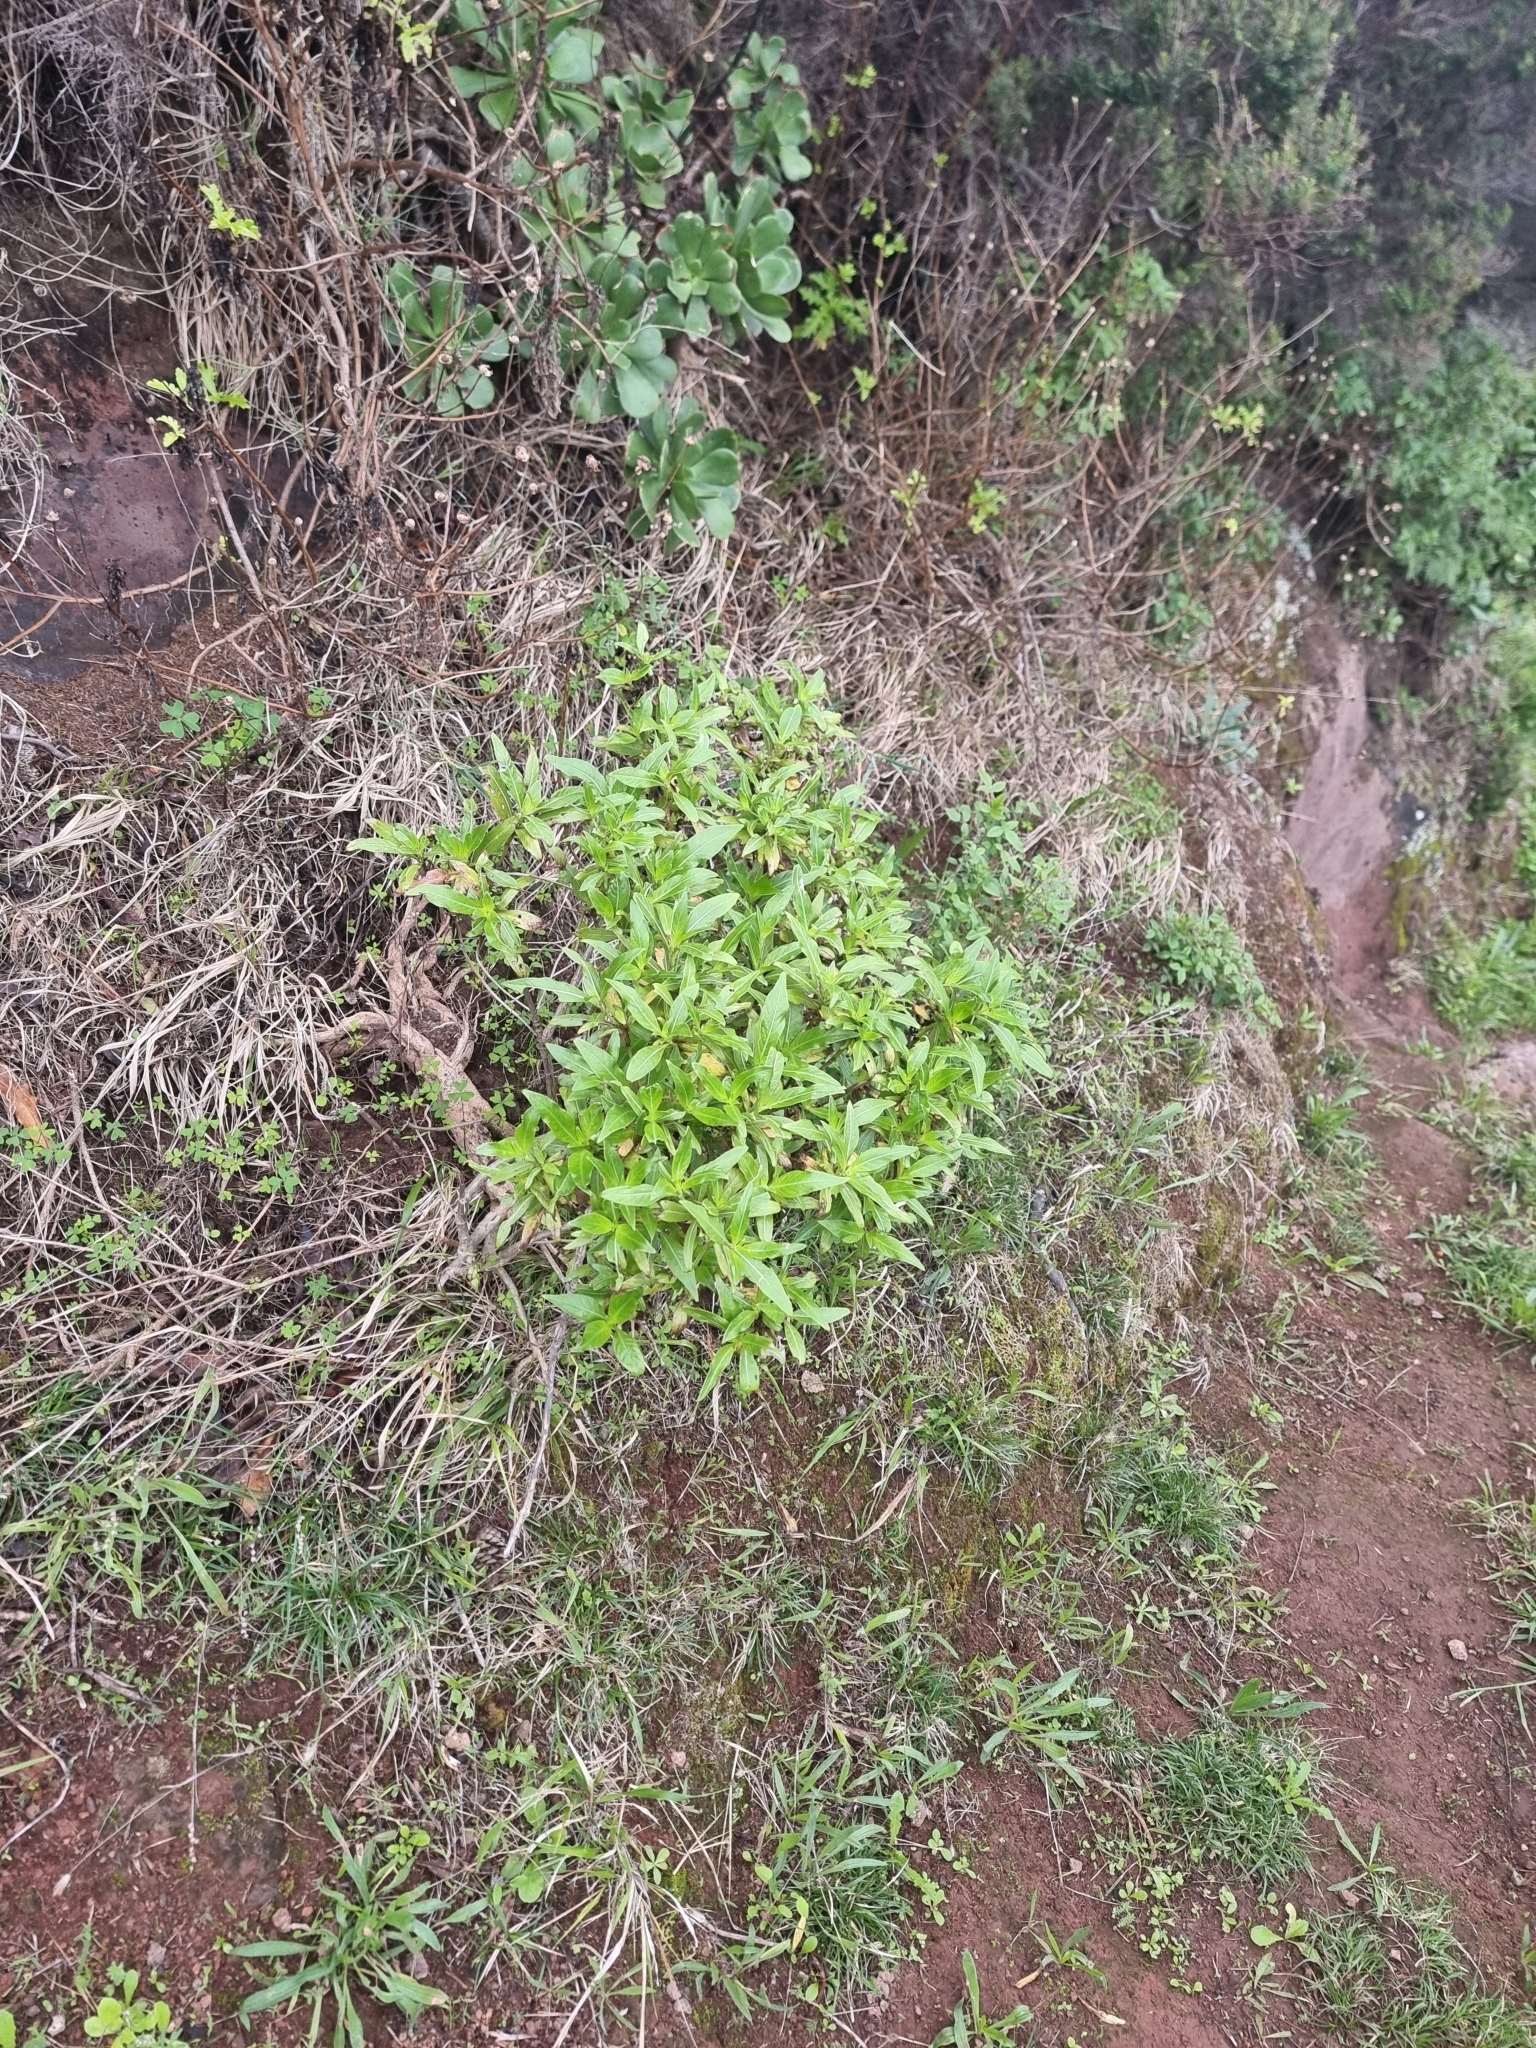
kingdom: Plantae
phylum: Tracheophyta
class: Magnoliopsida
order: Gentianales
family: Rubiaceae
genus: Phyllis
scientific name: Phyllis nobla
